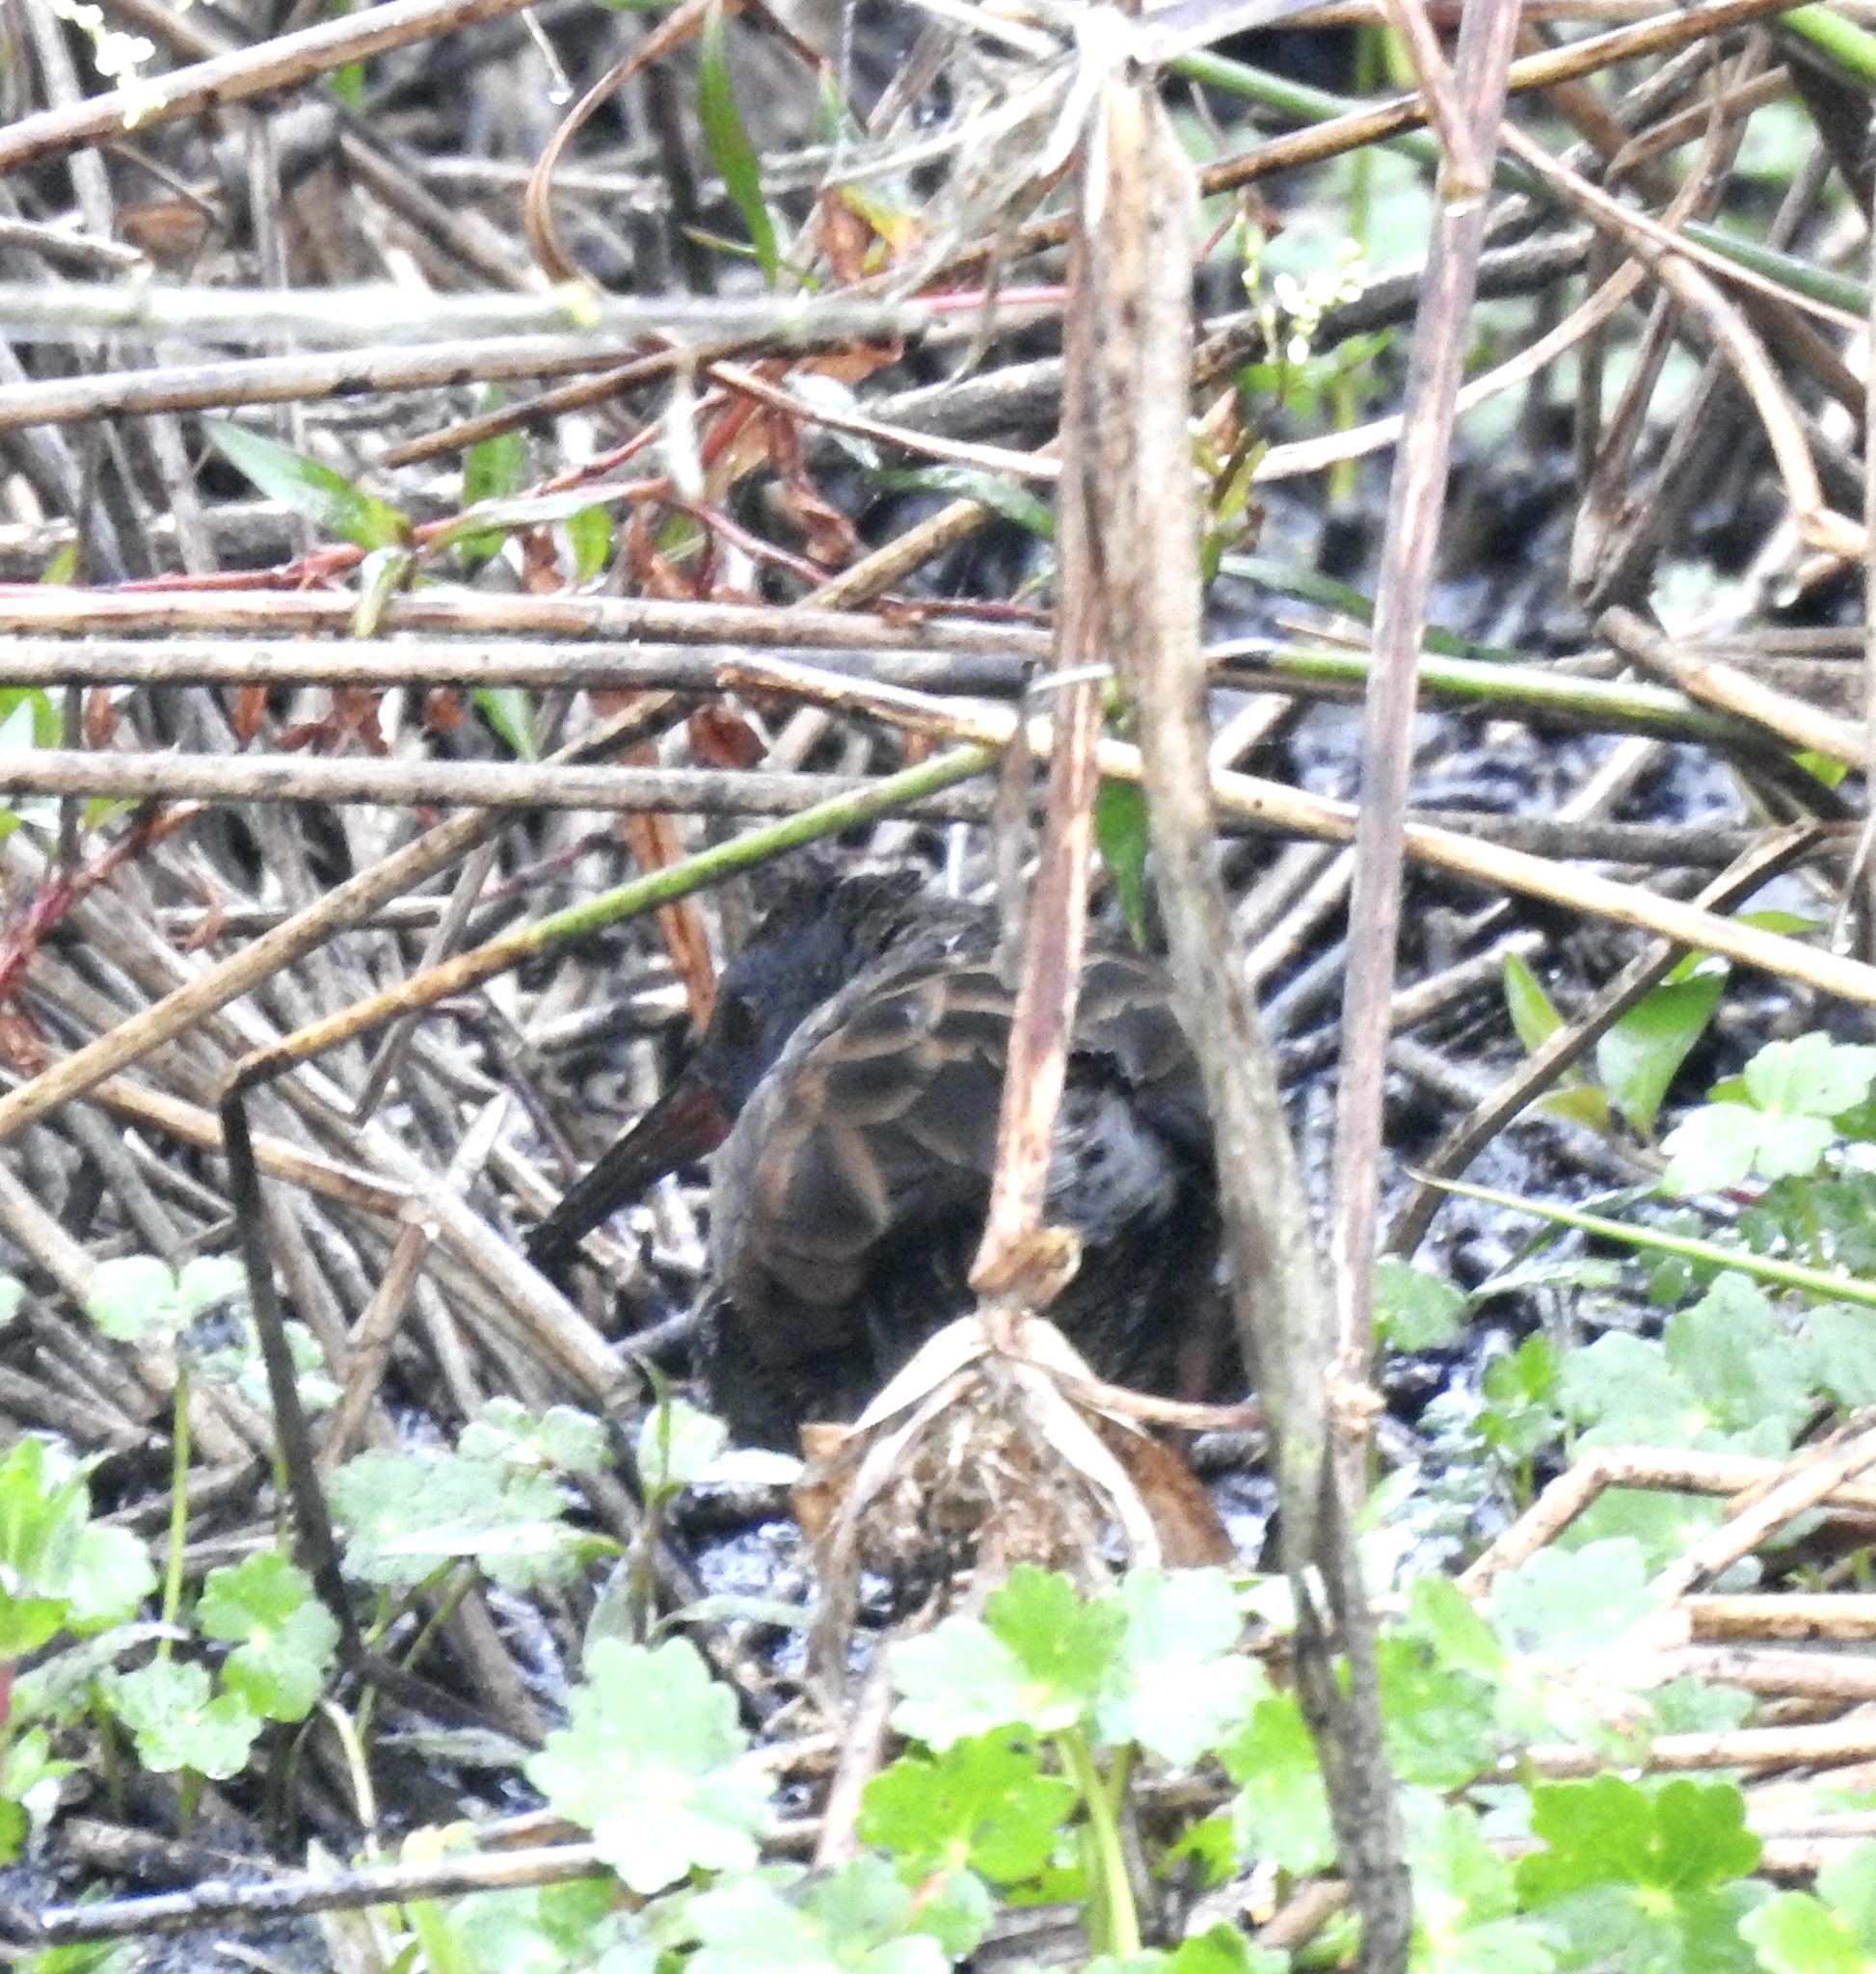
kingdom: Animalia
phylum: Chordata
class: Aves
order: Gruiformes
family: Rallidae
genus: Rallus
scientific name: Rallus semiplumbeus
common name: Bogota rail
